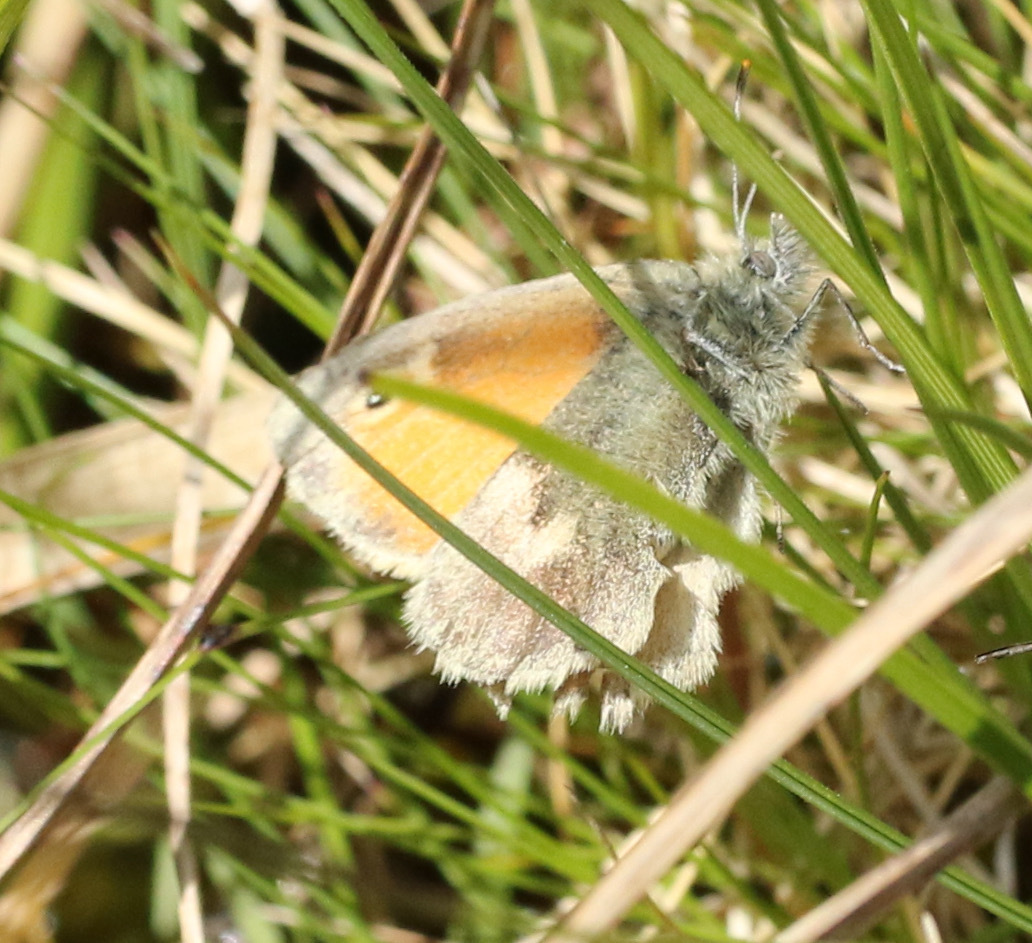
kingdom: Animalia
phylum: Arthropoda
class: Insecta
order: Lepidoptera
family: Nymphalidae
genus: Coenonympha
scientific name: Coenonympha pamphilus
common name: Small heath
